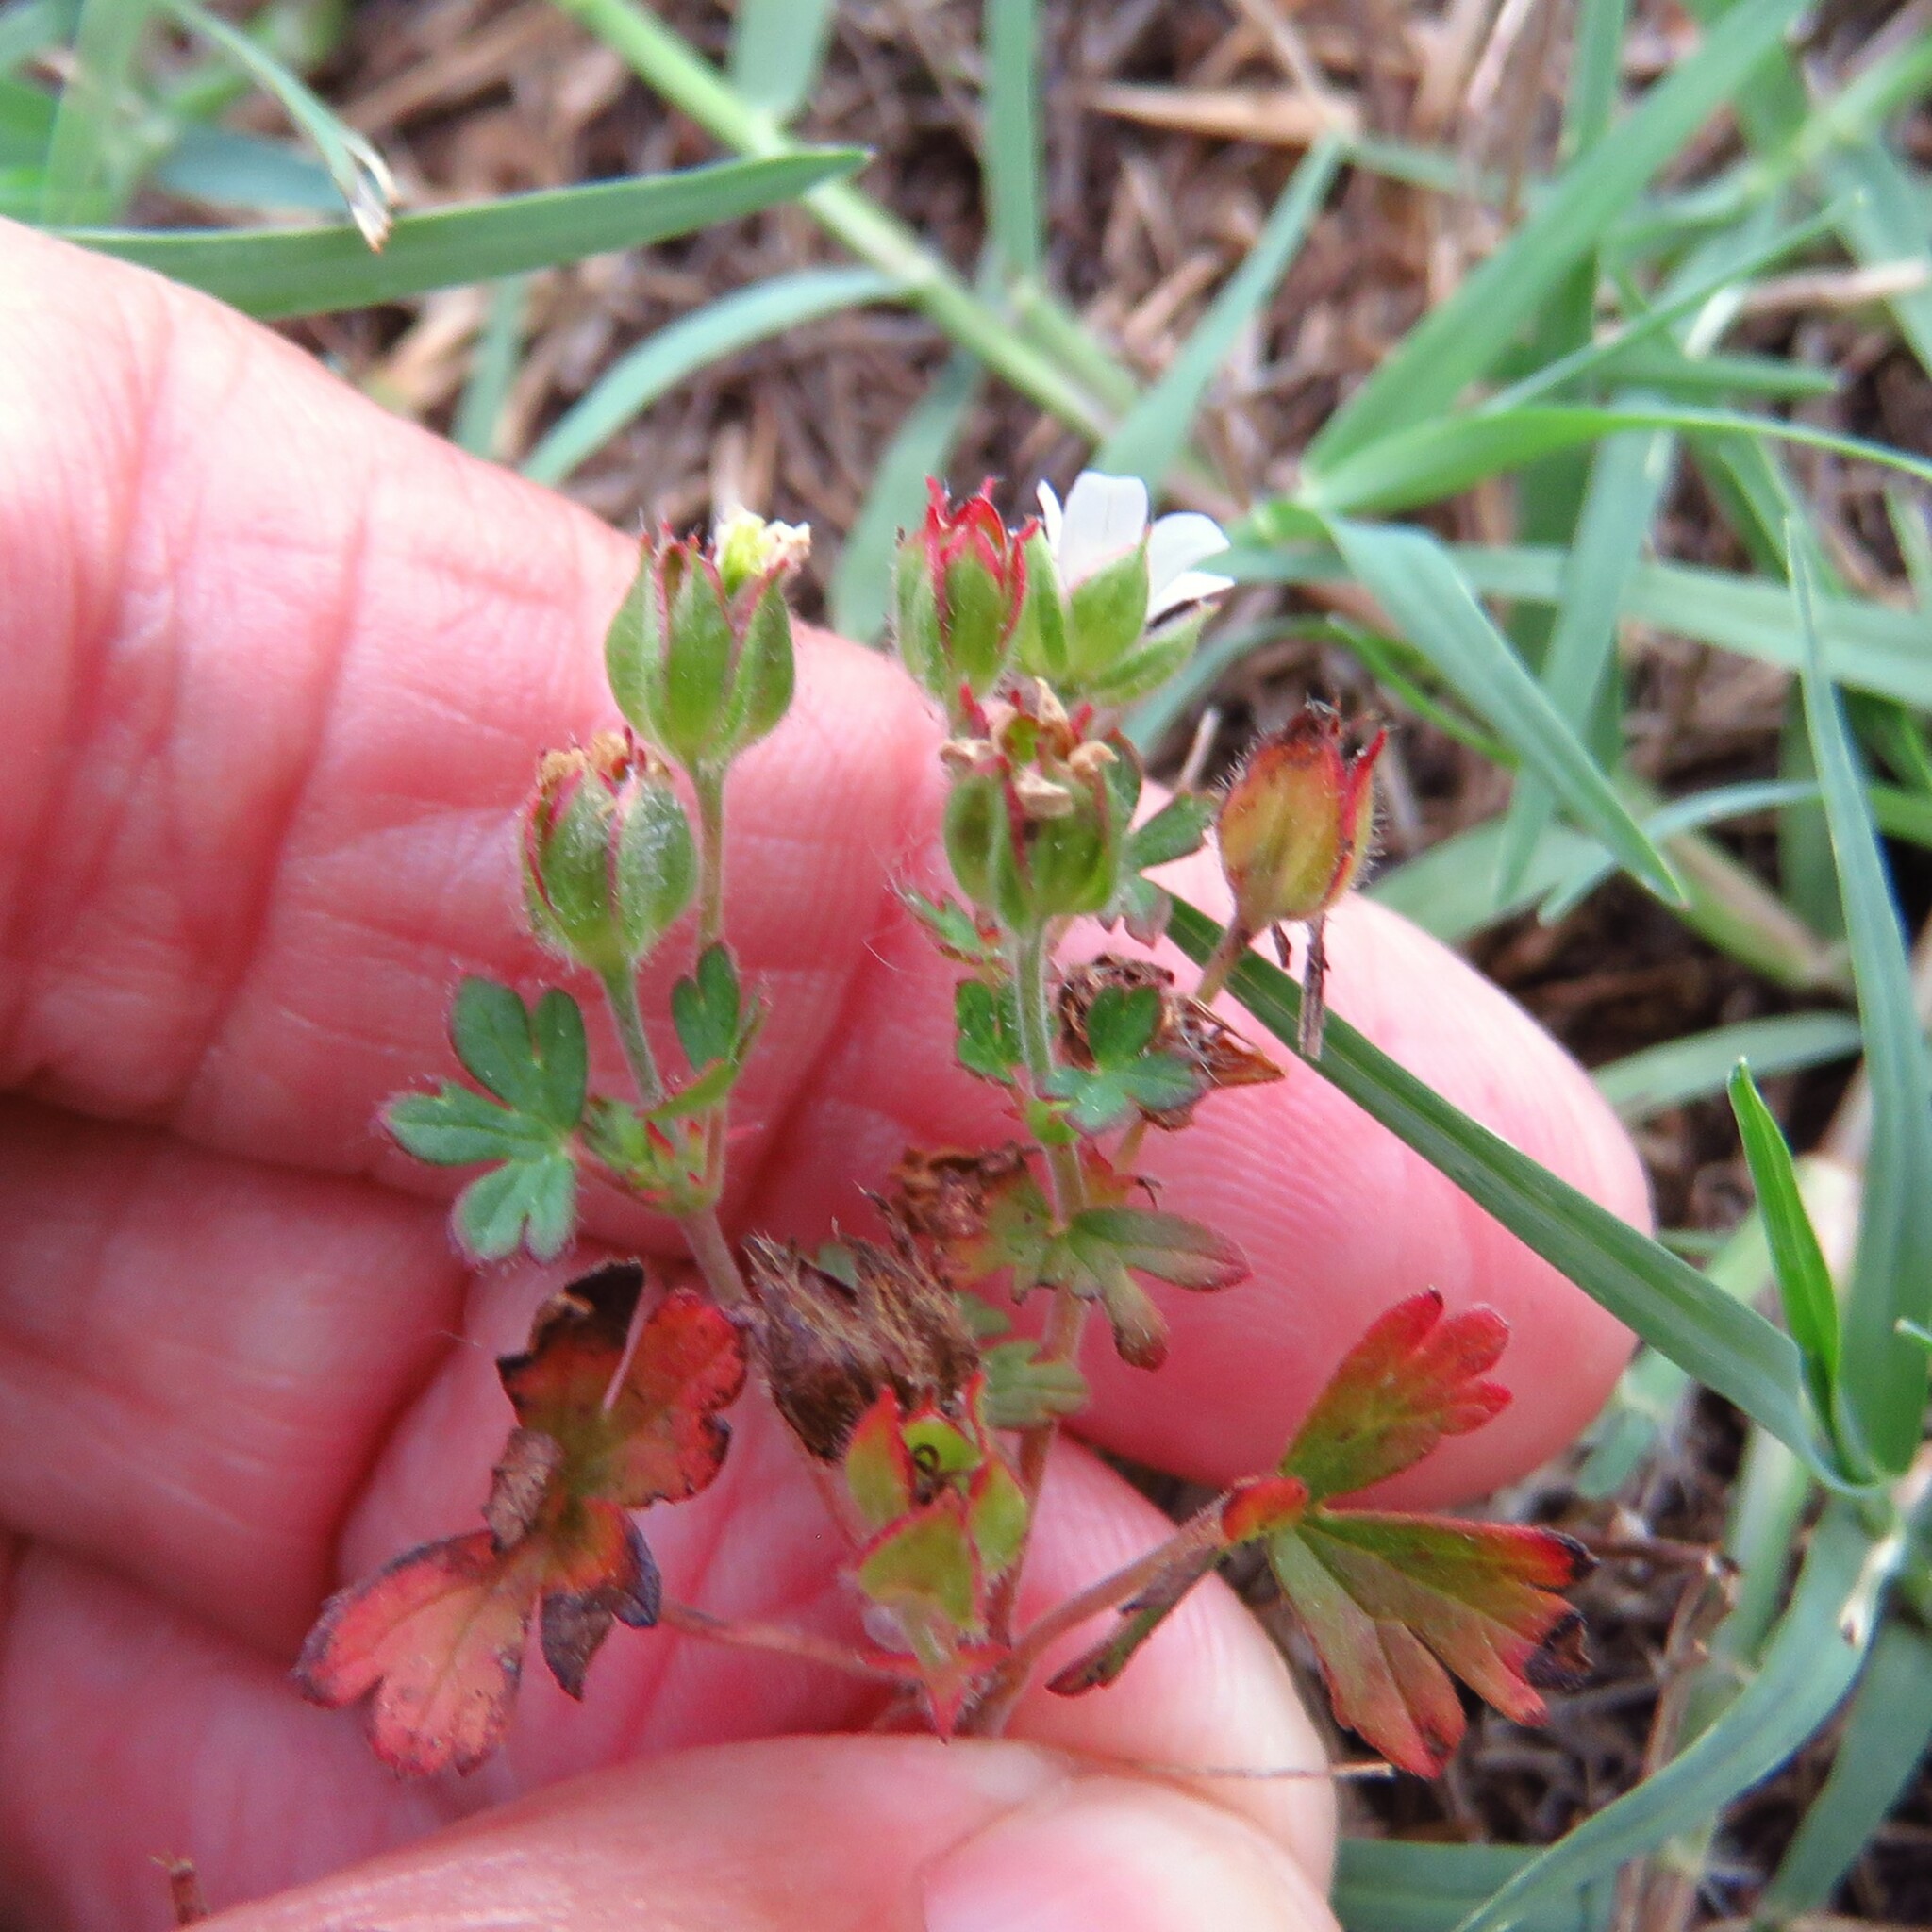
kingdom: Plantae
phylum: Tracheophyta
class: Magnoliopsida
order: Geraniales
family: Geraniaceae
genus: Geranium
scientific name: Geranium carolinianum
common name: Carolina crane's-bill
